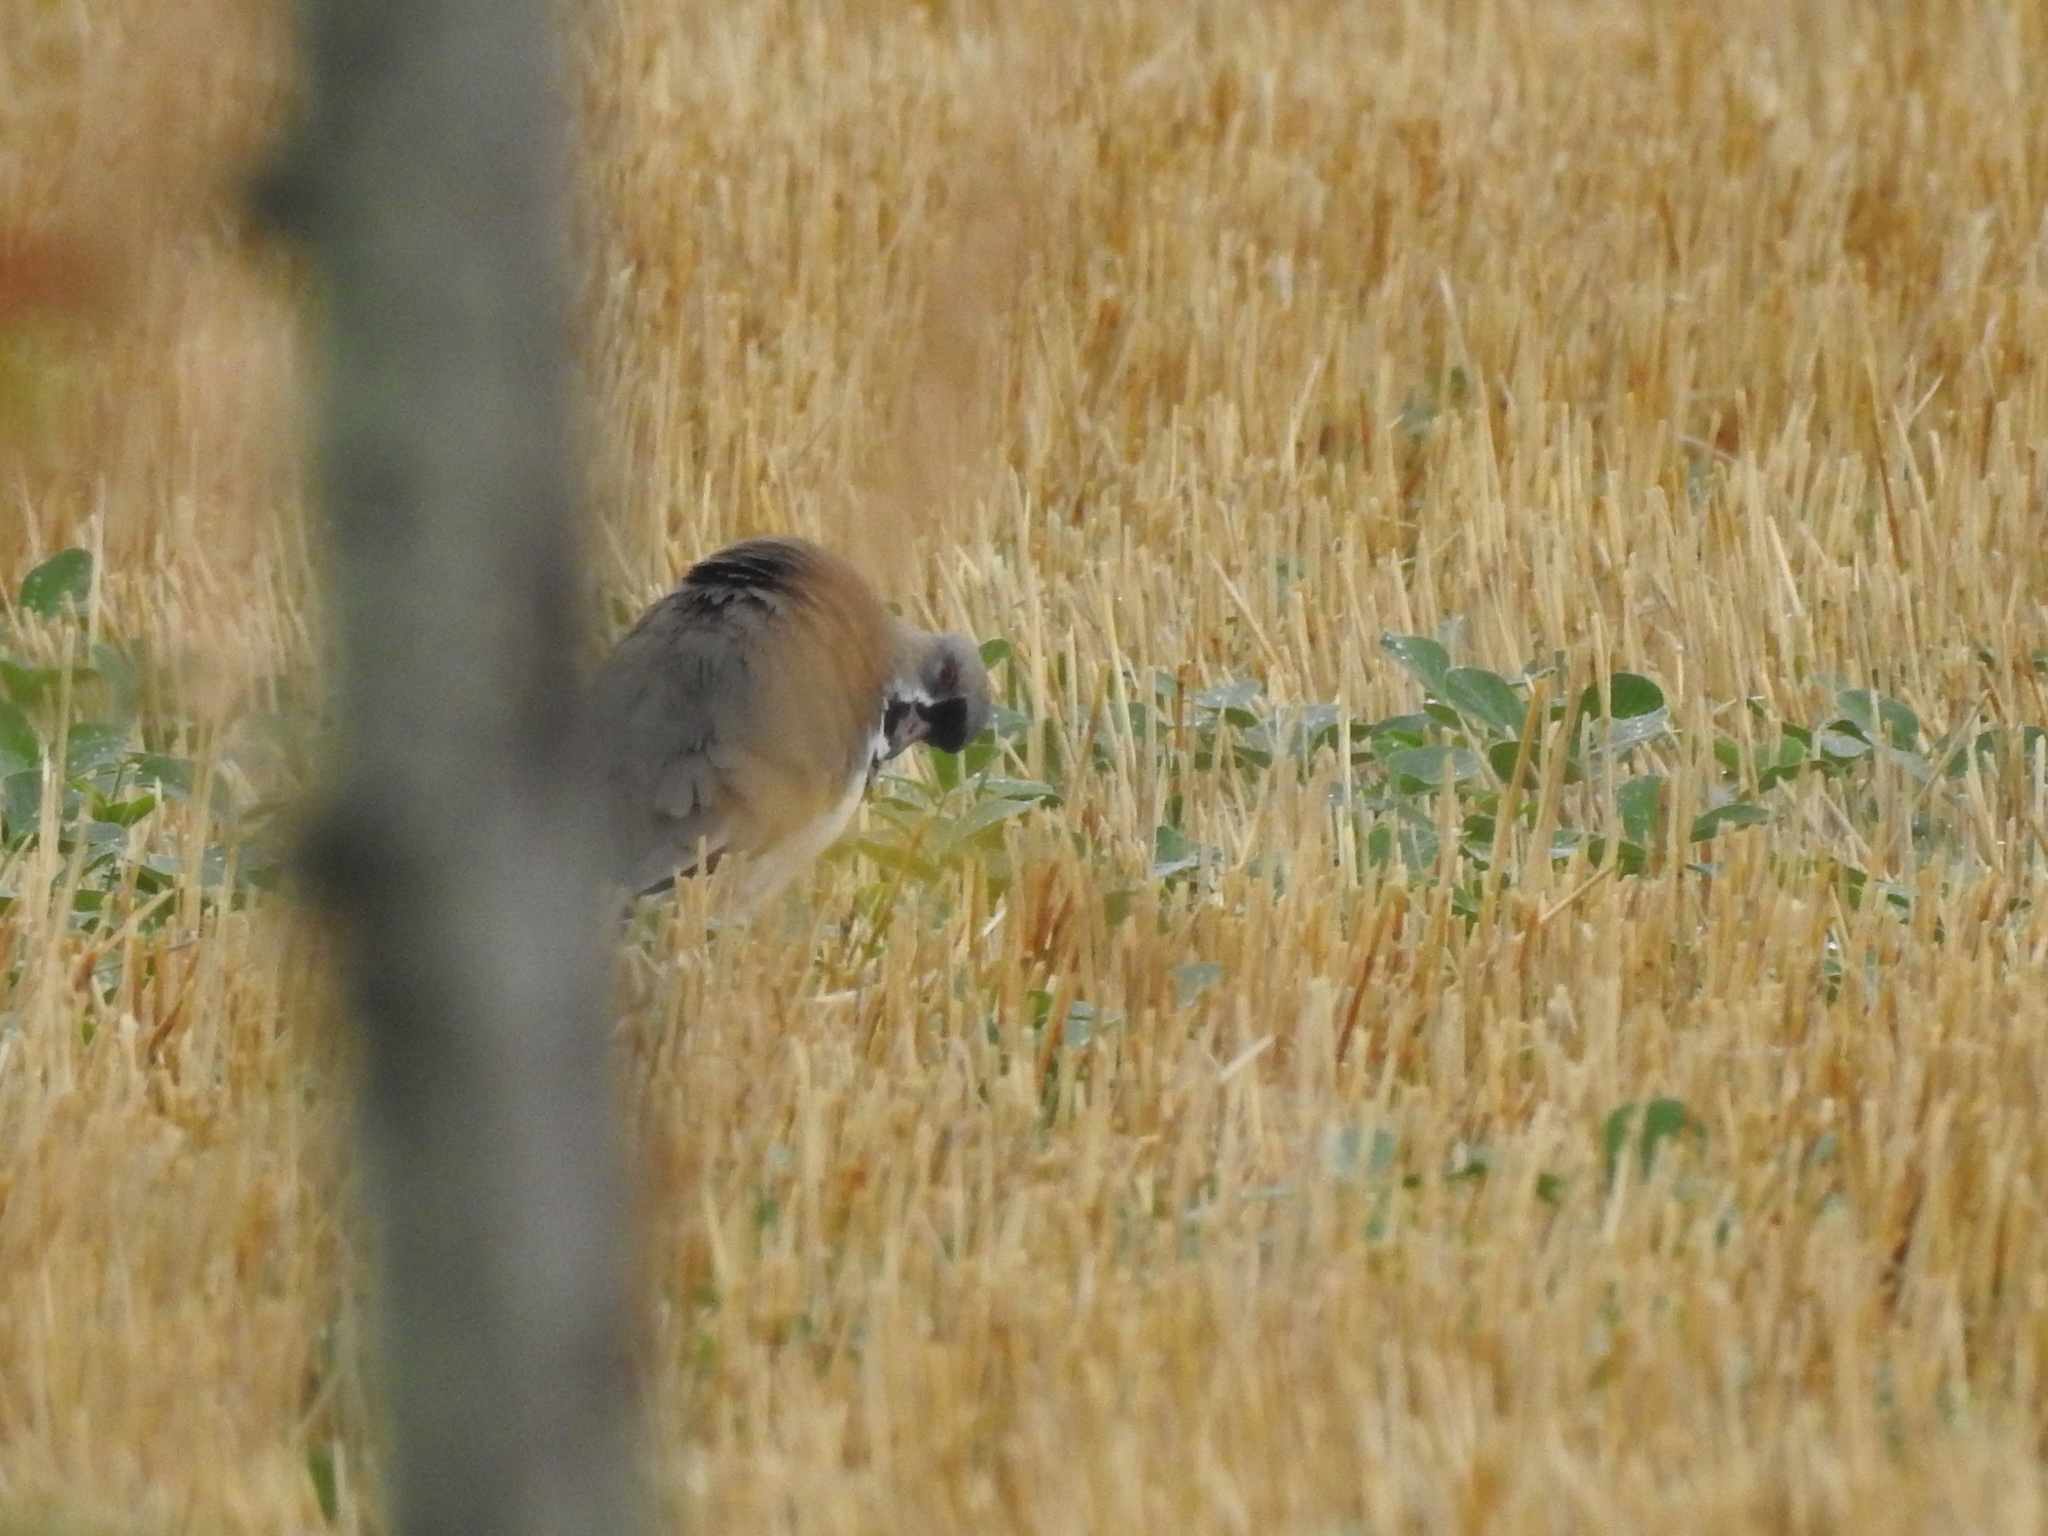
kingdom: Animalia
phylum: Chordata
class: Aves
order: Charadriiformes
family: Charadriidae
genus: Vanellus
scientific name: Vanellus chilensis
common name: Southern lapwing
